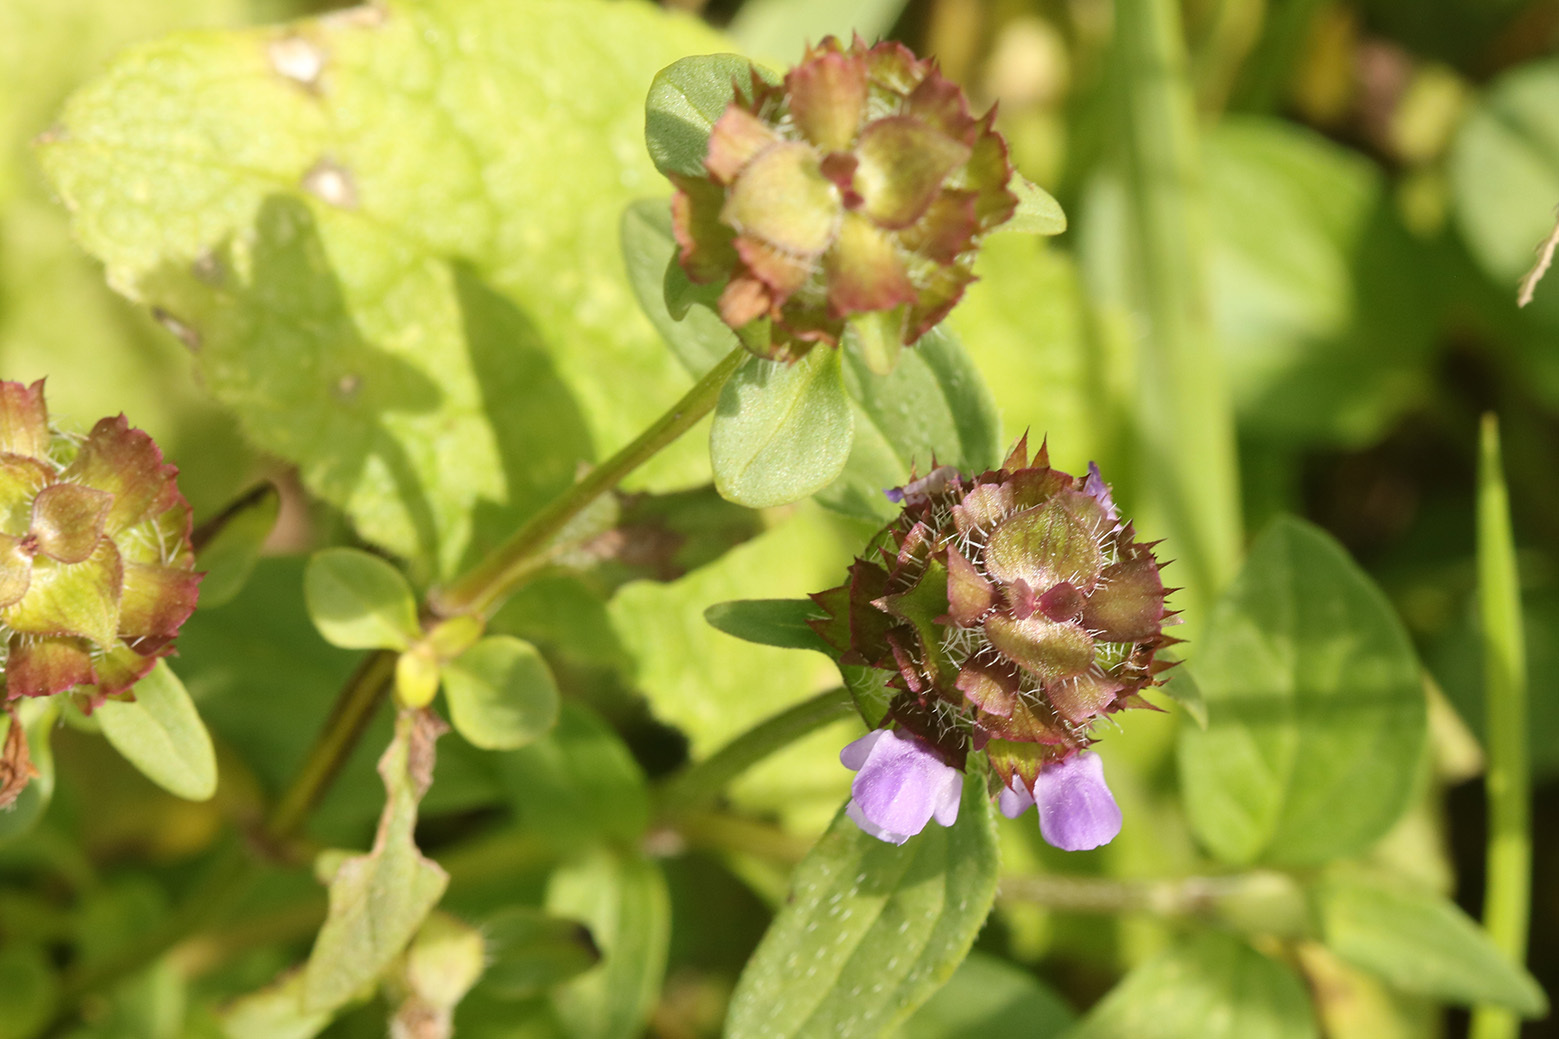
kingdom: Plantae
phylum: Tracheophyta
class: Magnoliopsida
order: Lamiales
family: Lamiaceae
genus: Prunella
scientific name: Prunella vulgaris
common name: Heal-all
